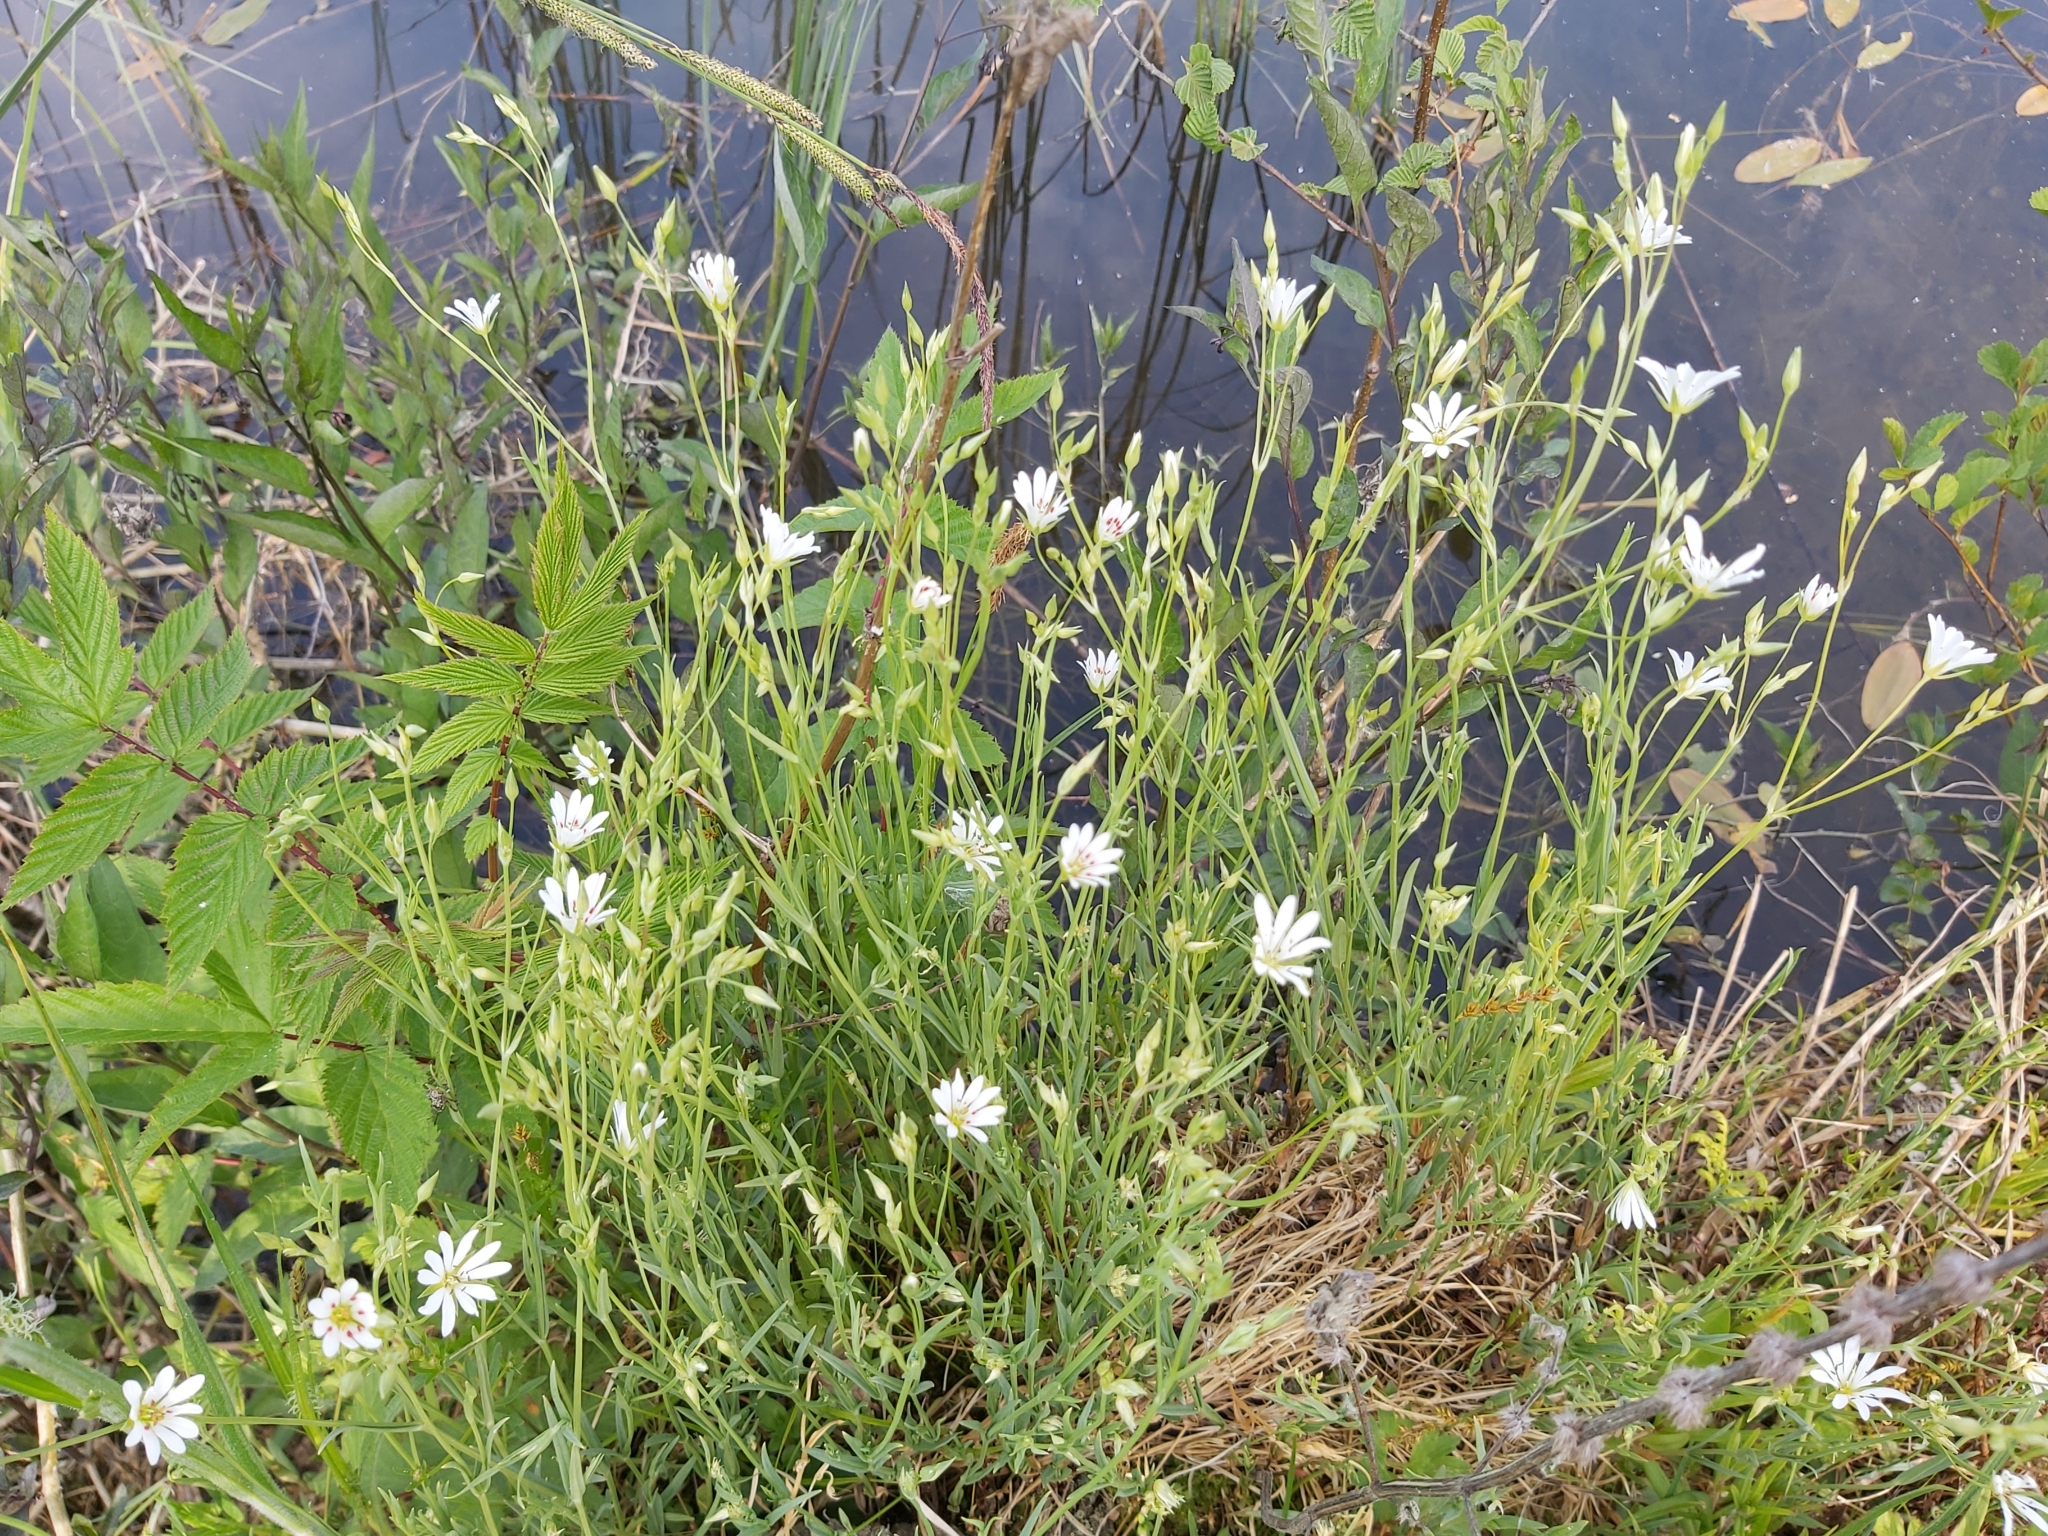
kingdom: Plantae
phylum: Tracheophyta
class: Magnoliopsida
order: Caryophyllales
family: Caryophyllaceae
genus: Stellaria
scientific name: Stellaria palustris
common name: Marsh stitchwort
